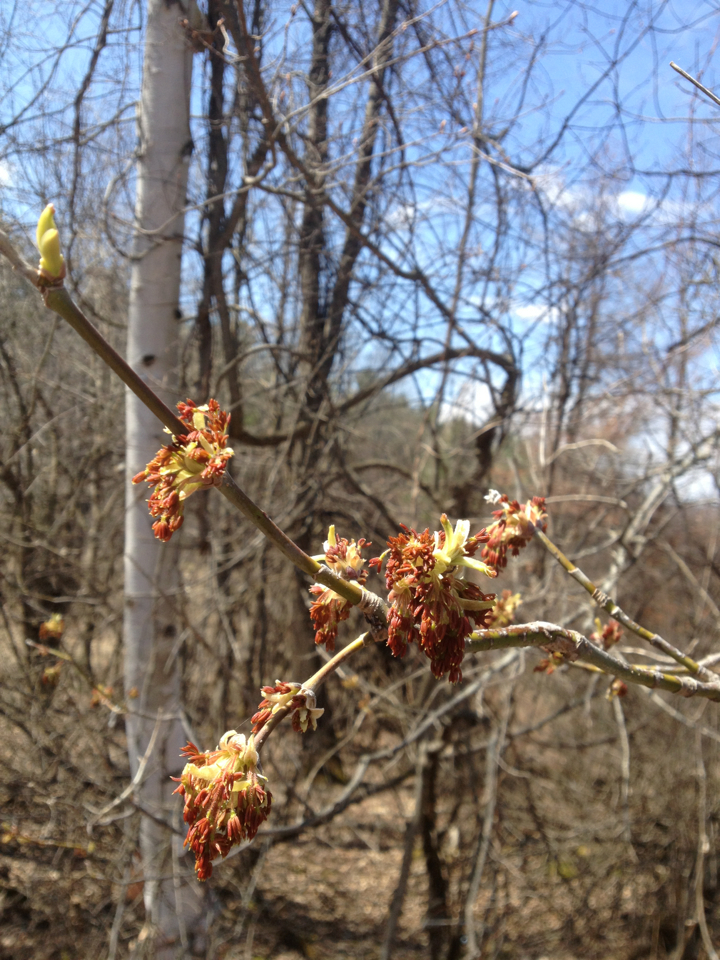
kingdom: Plantae
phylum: Tracheophyta
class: Magnoliopsida
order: Sapindales
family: Sapindaceae
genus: Acer
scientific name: Acer negundo
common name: Ashleaf maple
